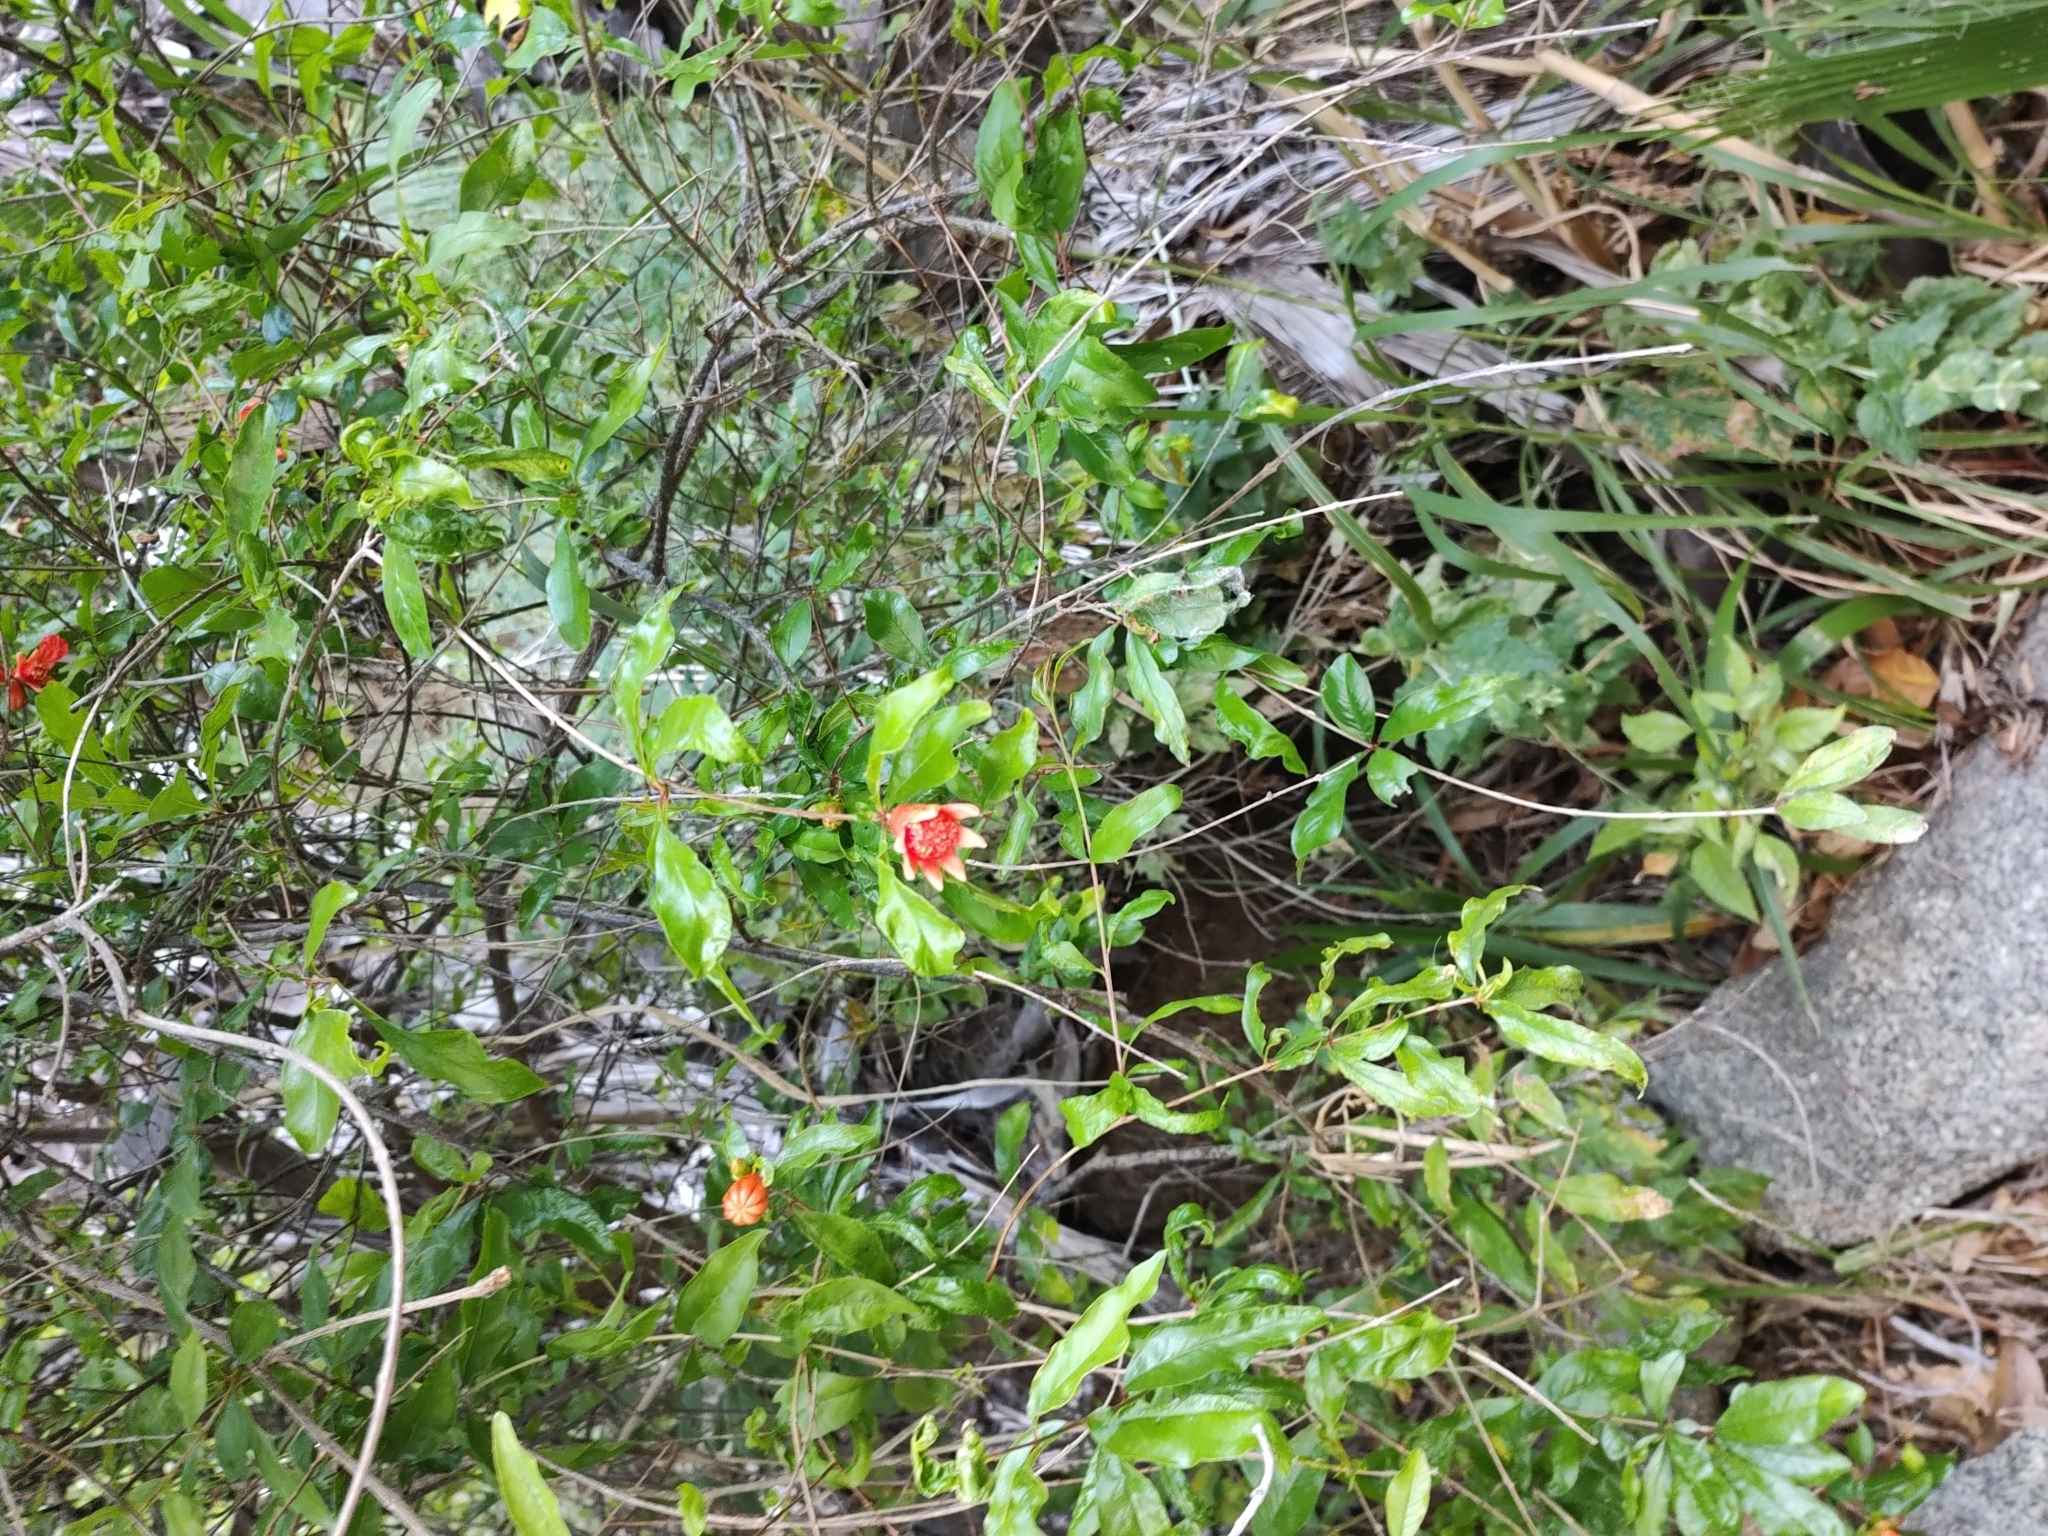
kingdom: Plantae
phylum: Tracheophyta
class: Magnoliopsida
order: Myrtales
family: Lythraceae
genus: Punica
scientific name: Punica granatum
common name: Pomegranate
